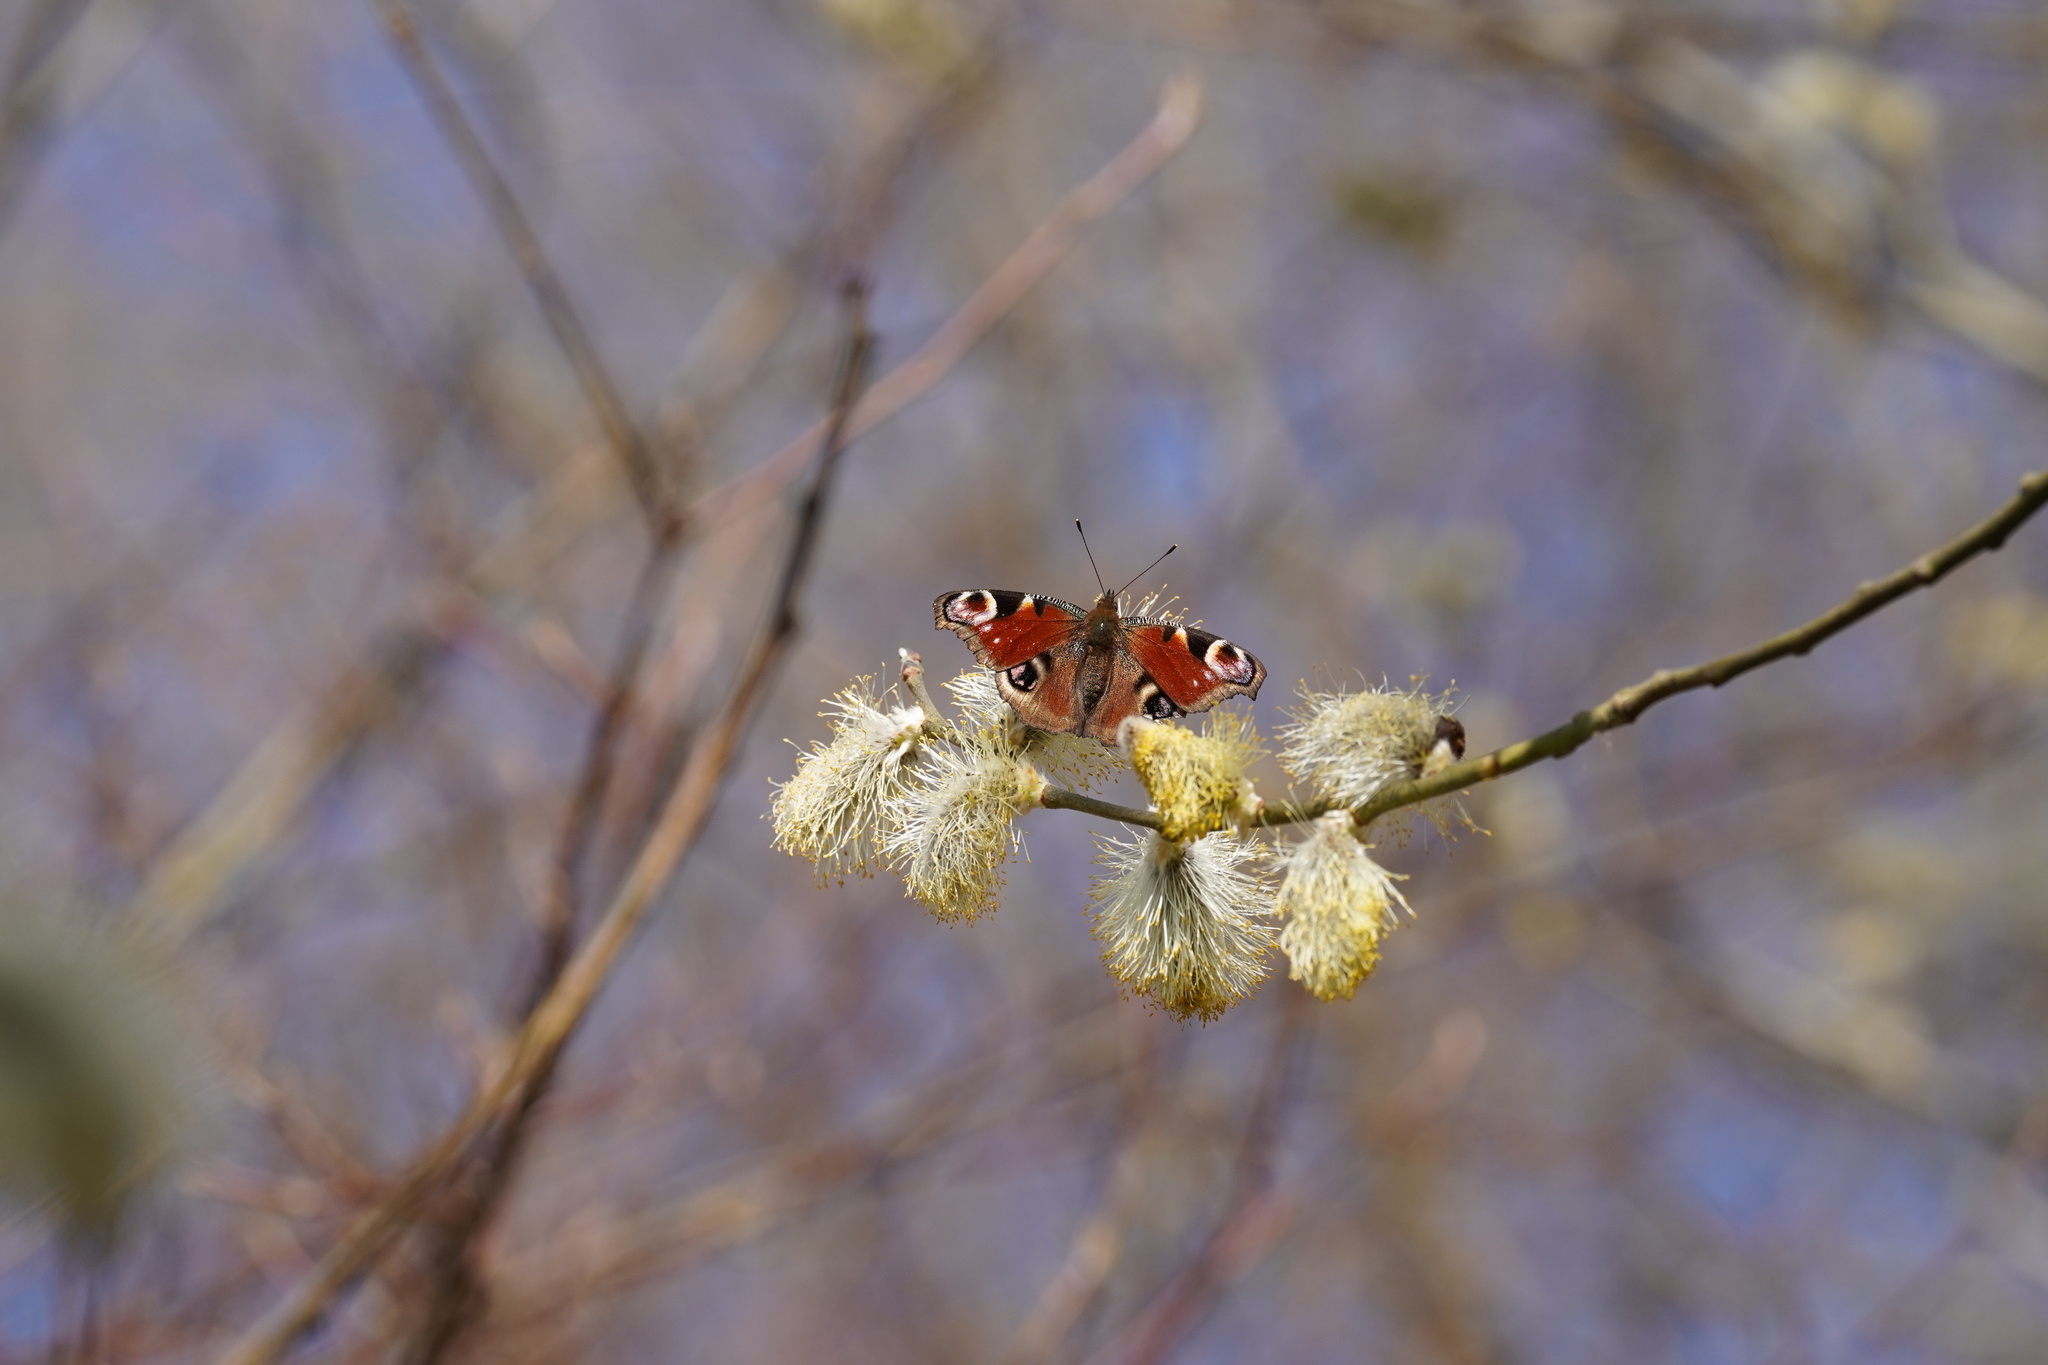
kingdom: Animalia
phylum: Arthropoda
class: Insecta
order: Lepidoptera
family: Nymphalidae
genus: Aglais
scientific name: Aglais io
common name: Peacock
